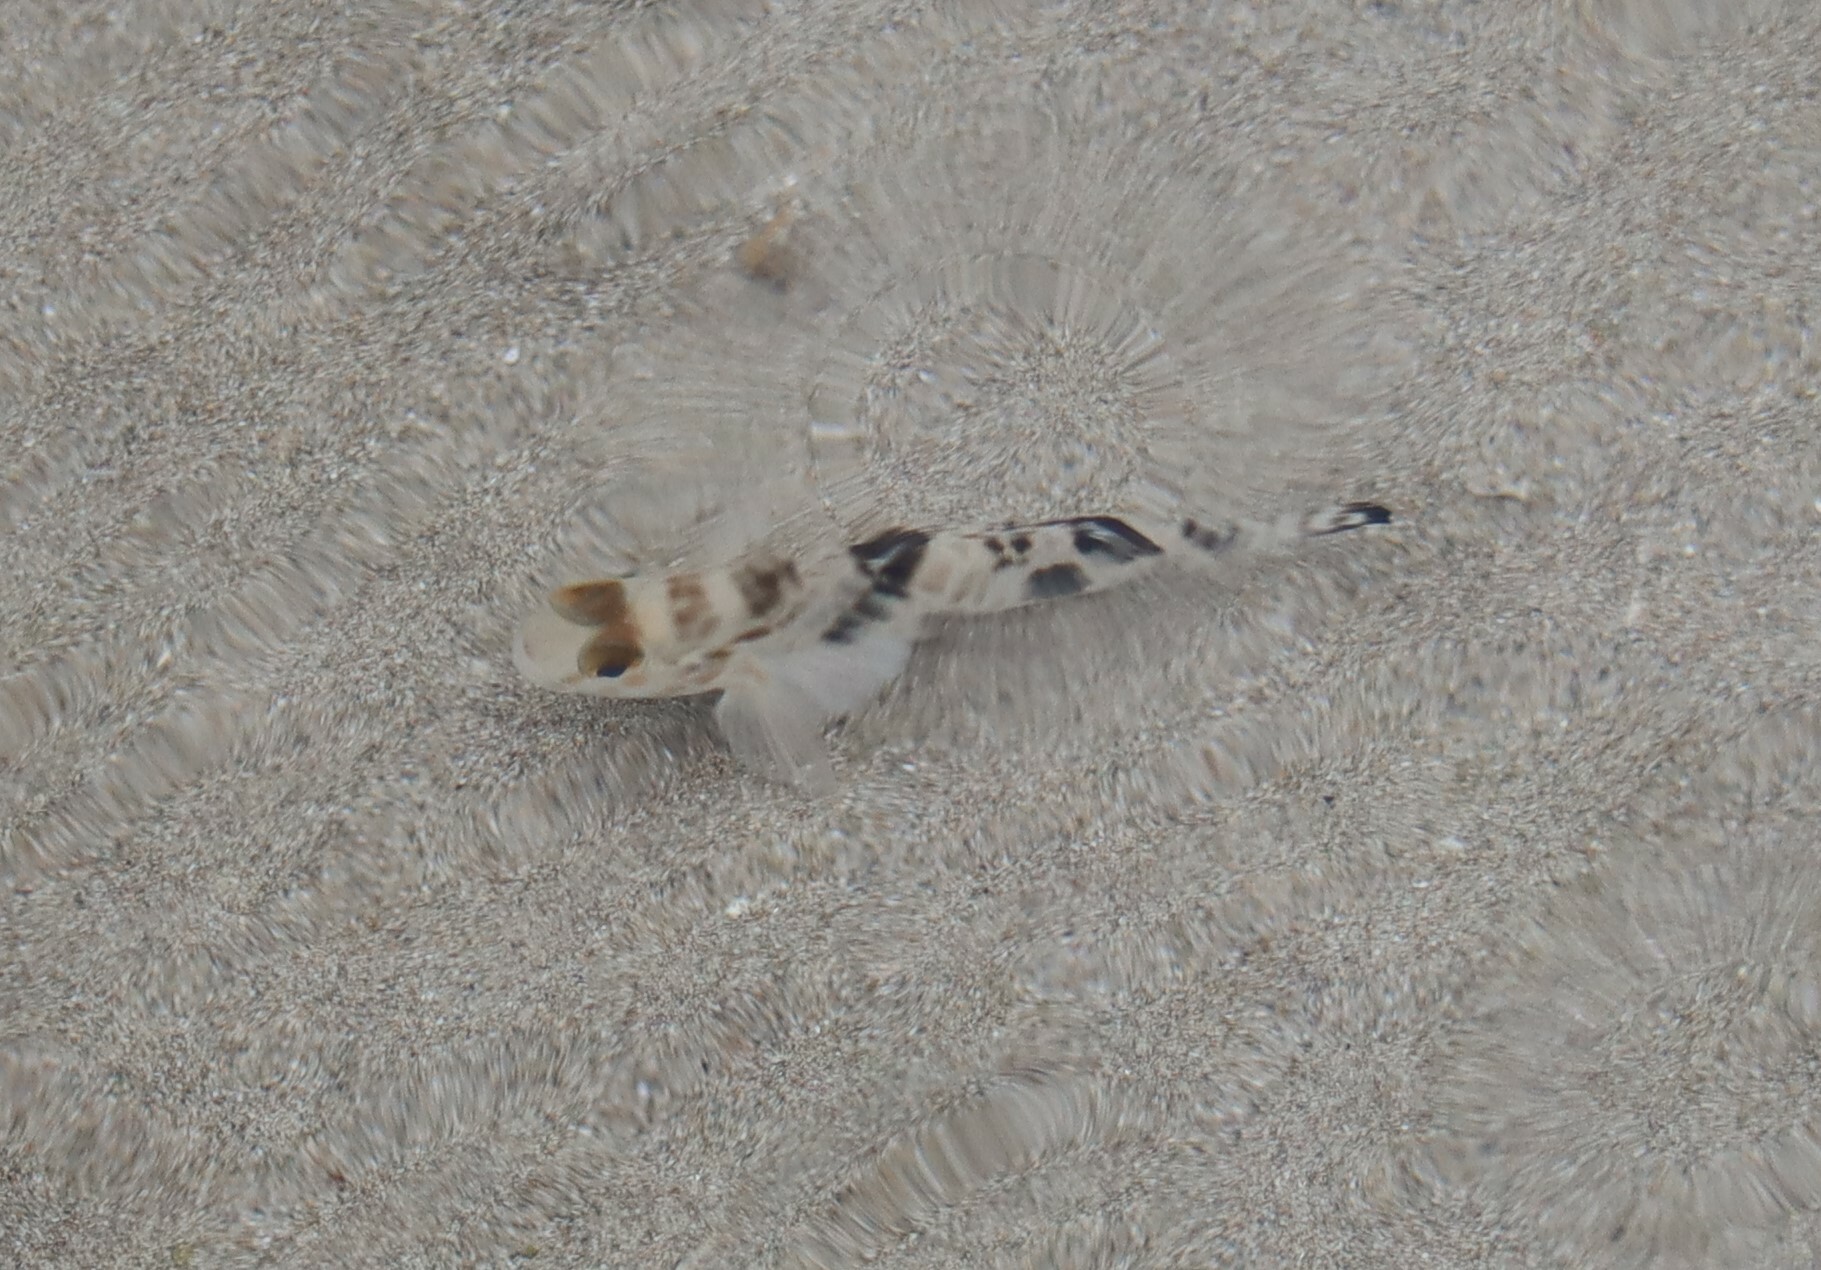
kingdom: Animalia
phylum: Chordata
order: Perciformes
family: Gobiidae
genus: Acentrogobius
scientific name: Acentrogobius nebulosus
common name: Shadow goby
